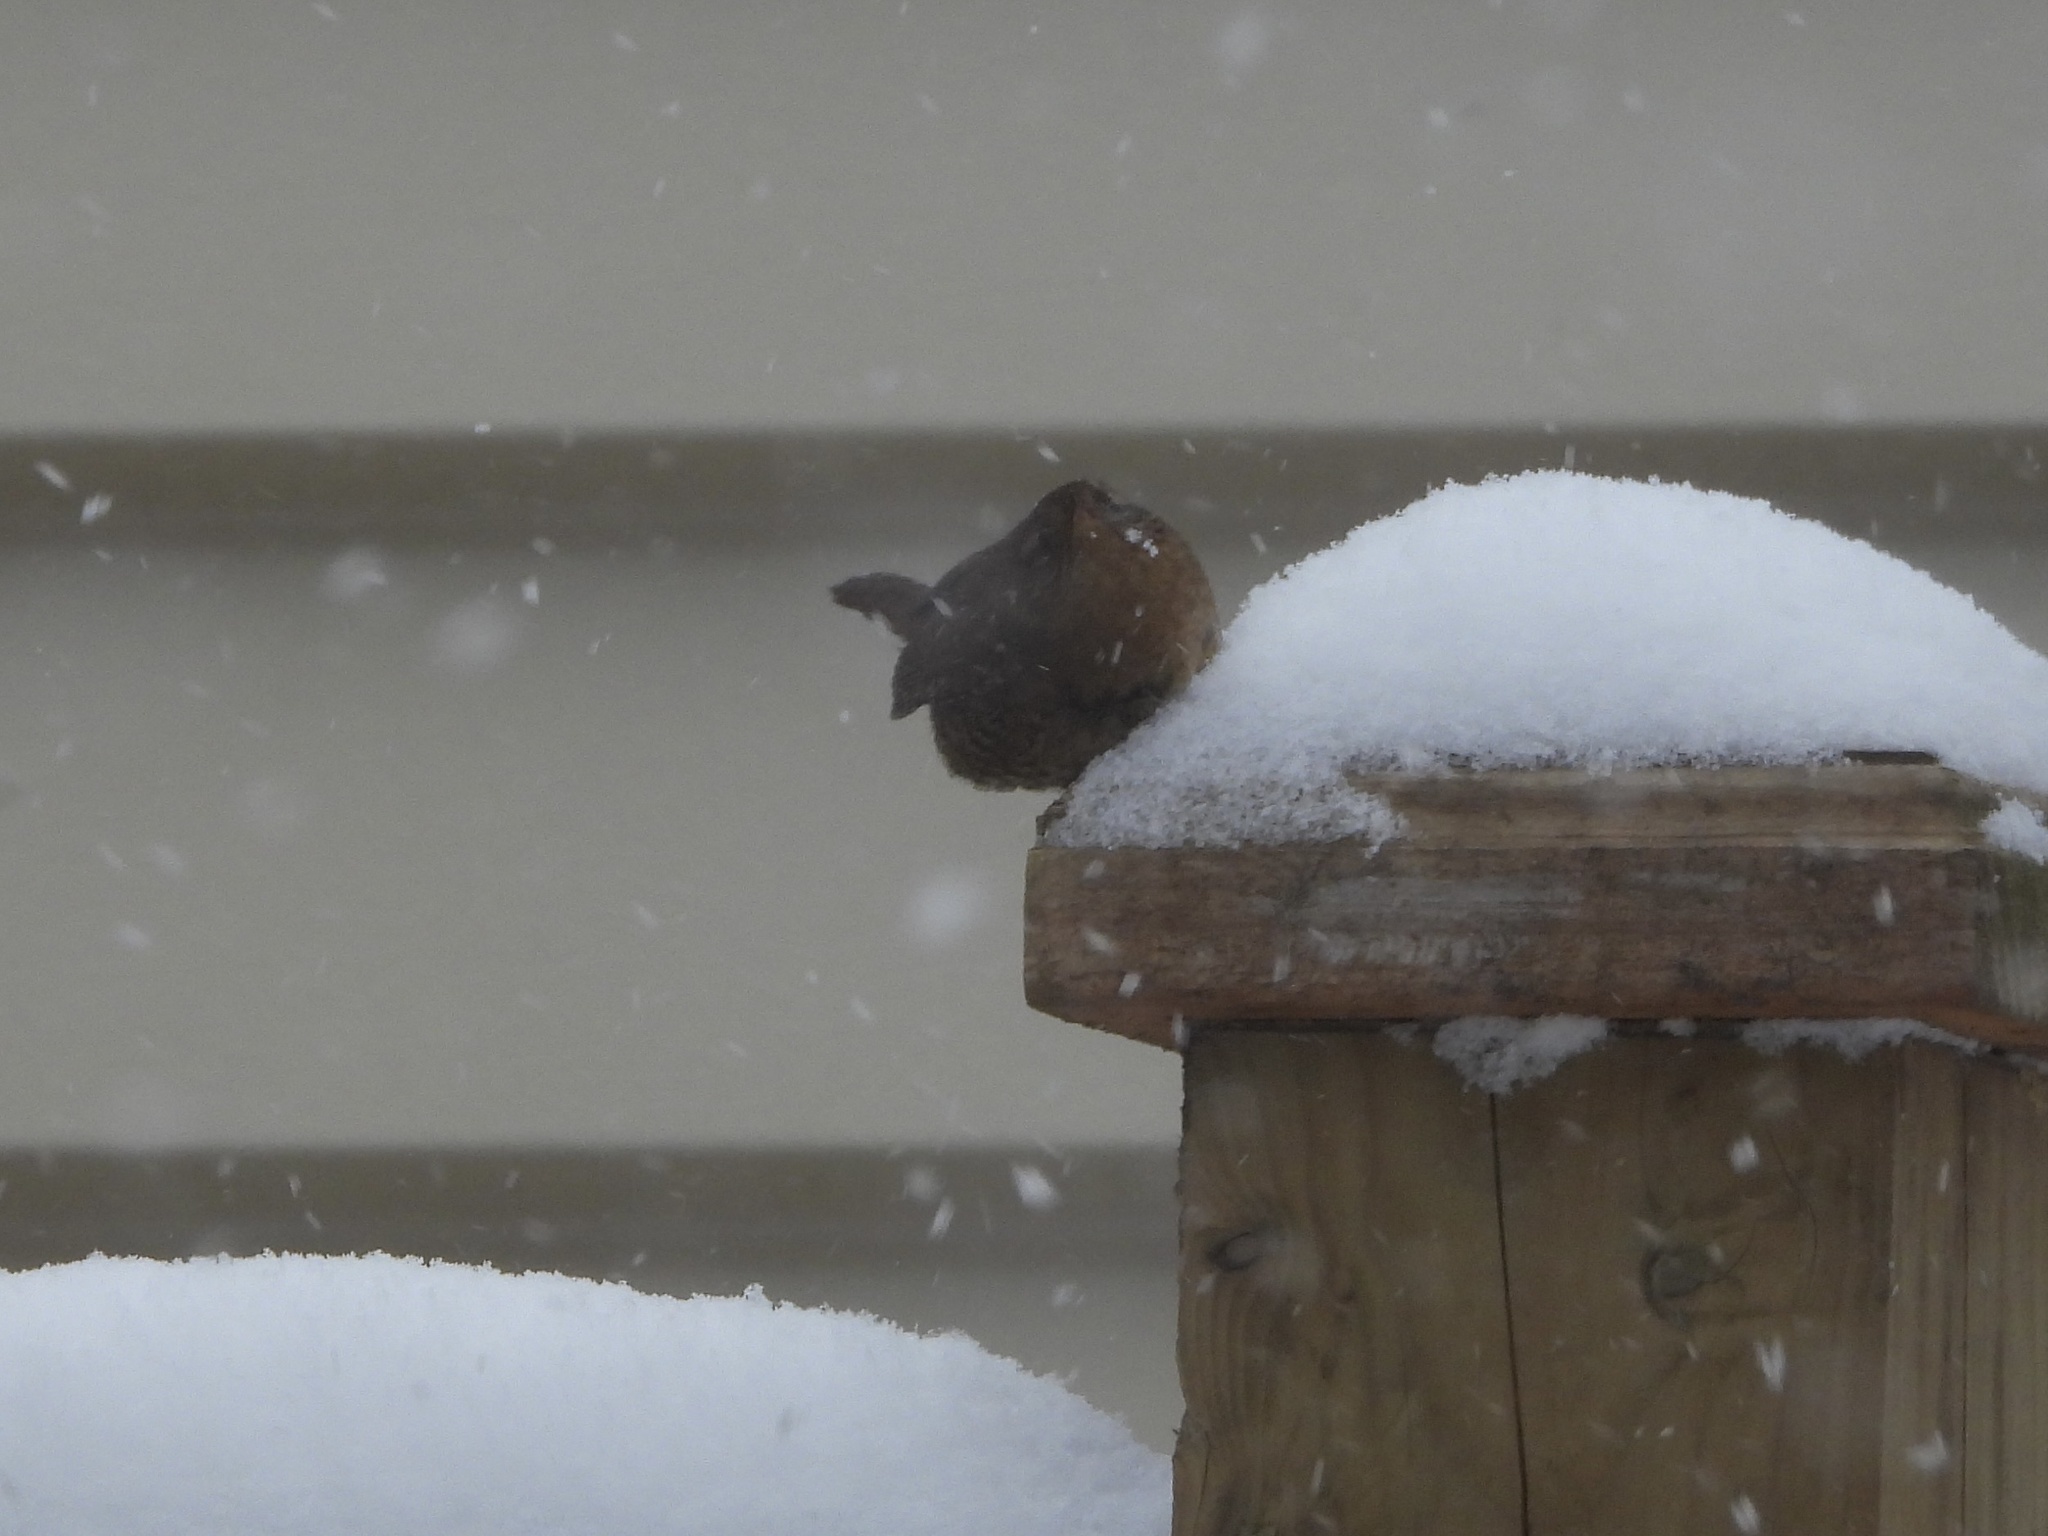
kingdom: Animalia
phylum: Chordata
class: Aves
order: Passeriformes
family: Troglodytidae
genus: Troglodytes
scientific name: Troglodytes pacificus
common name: Pacific wren
